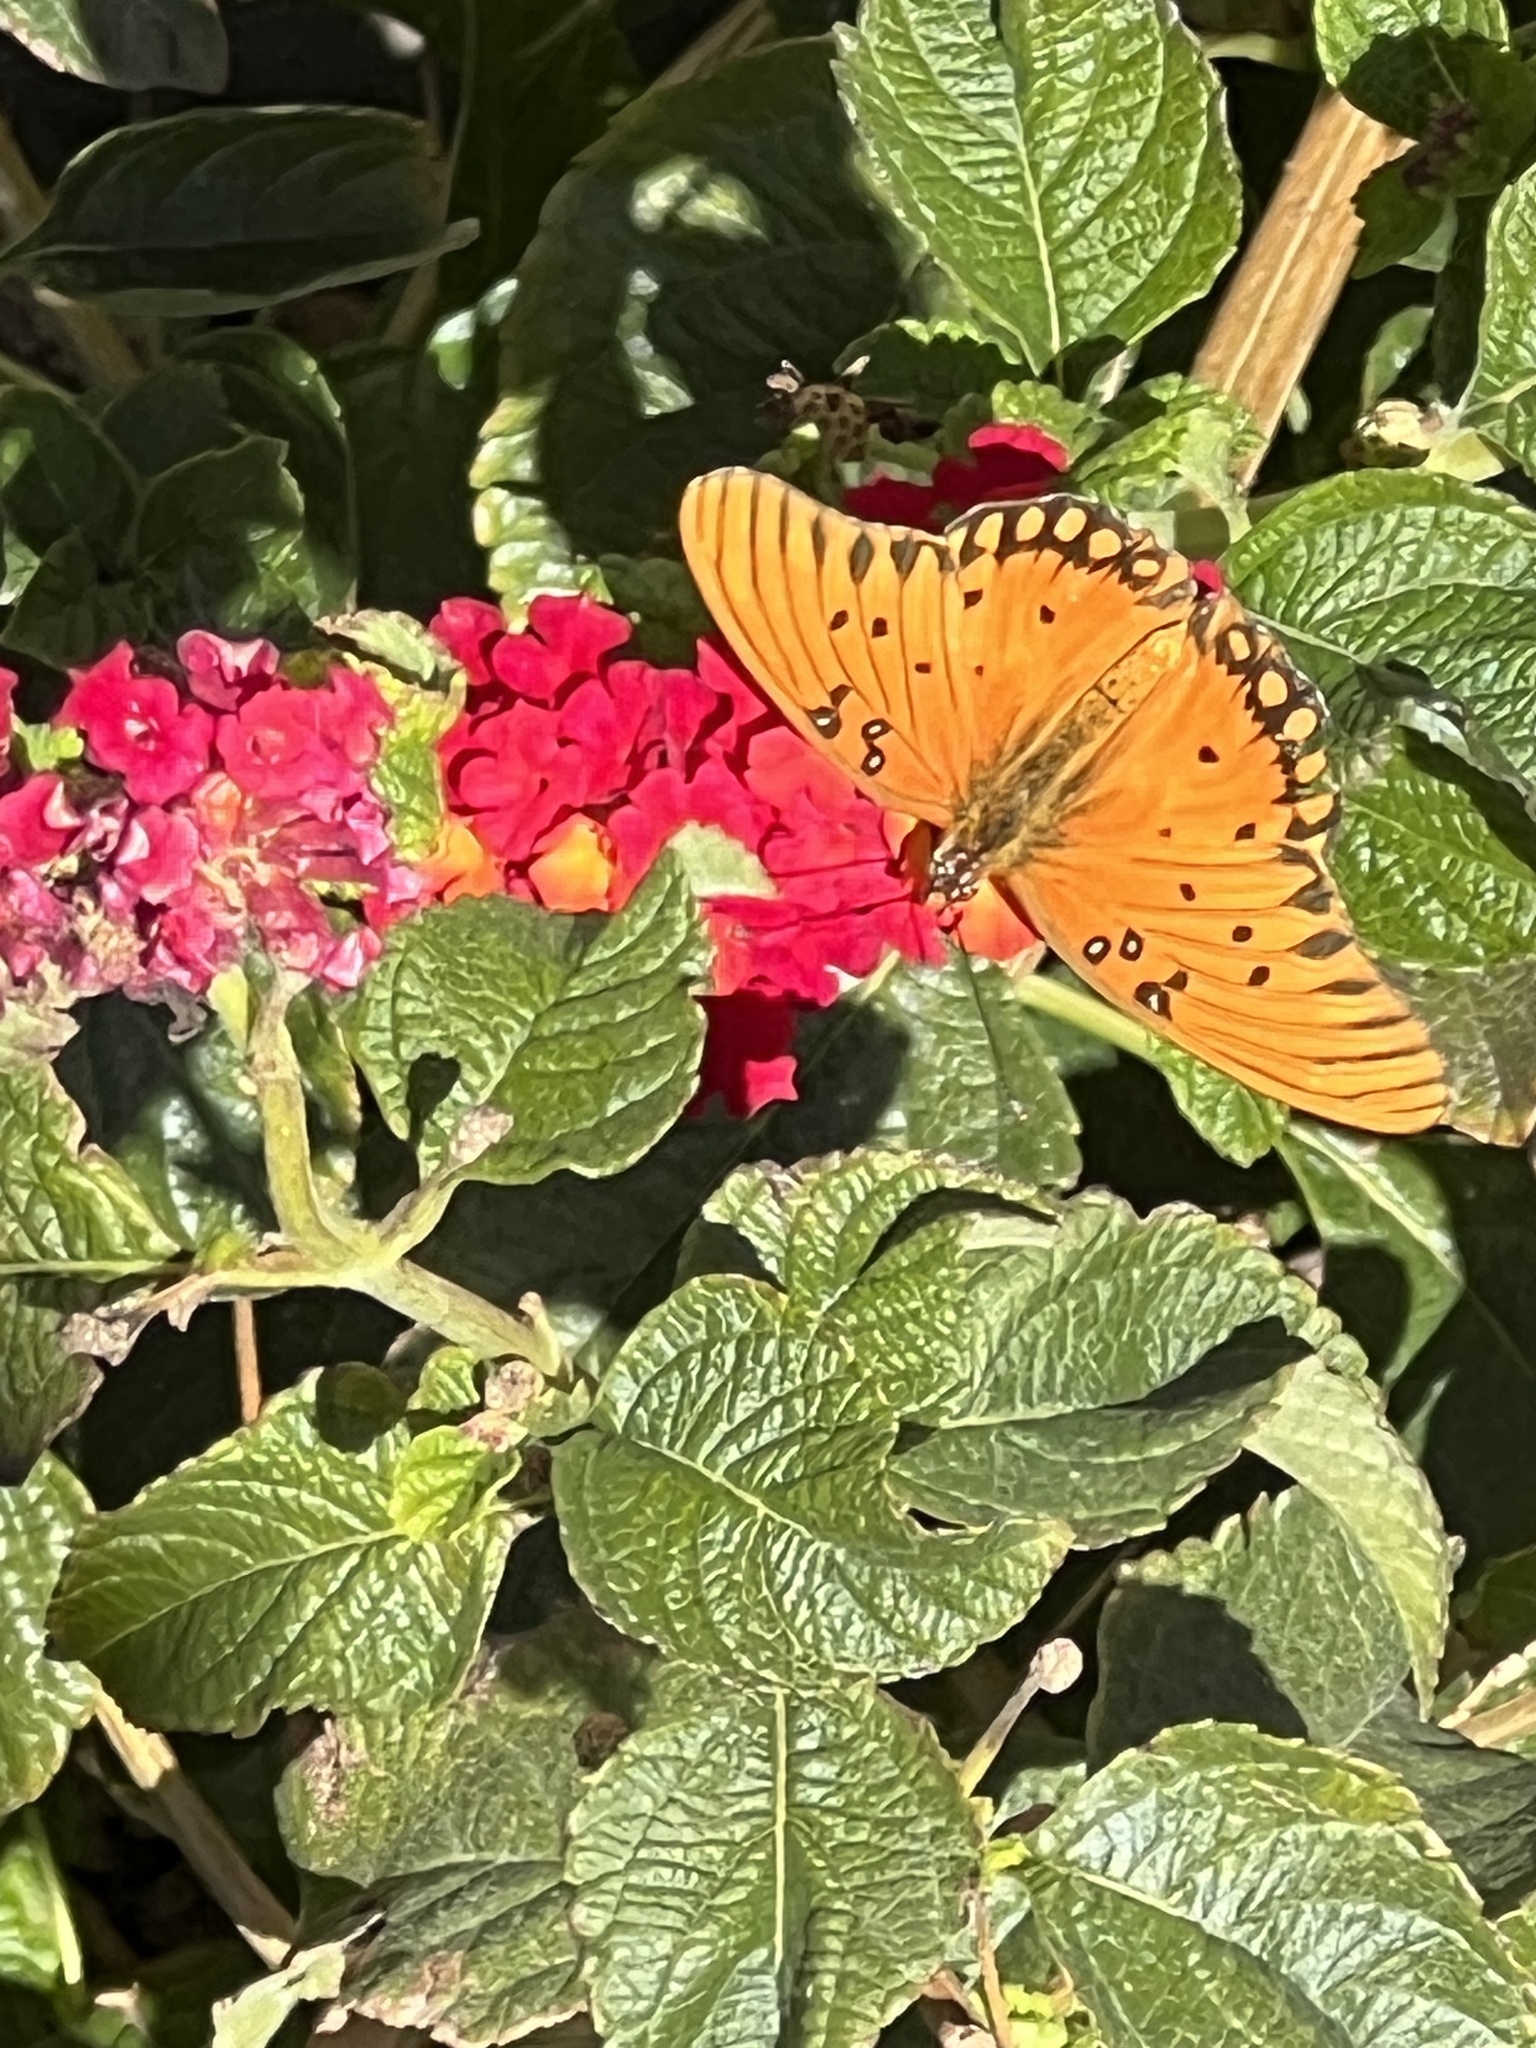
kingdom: Animalia
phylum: Arthropoda
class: Insecta
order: Lepidoptera
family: Nymphalidae
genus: Dione
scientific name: Dione vanillae
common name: Gulf fritillary
